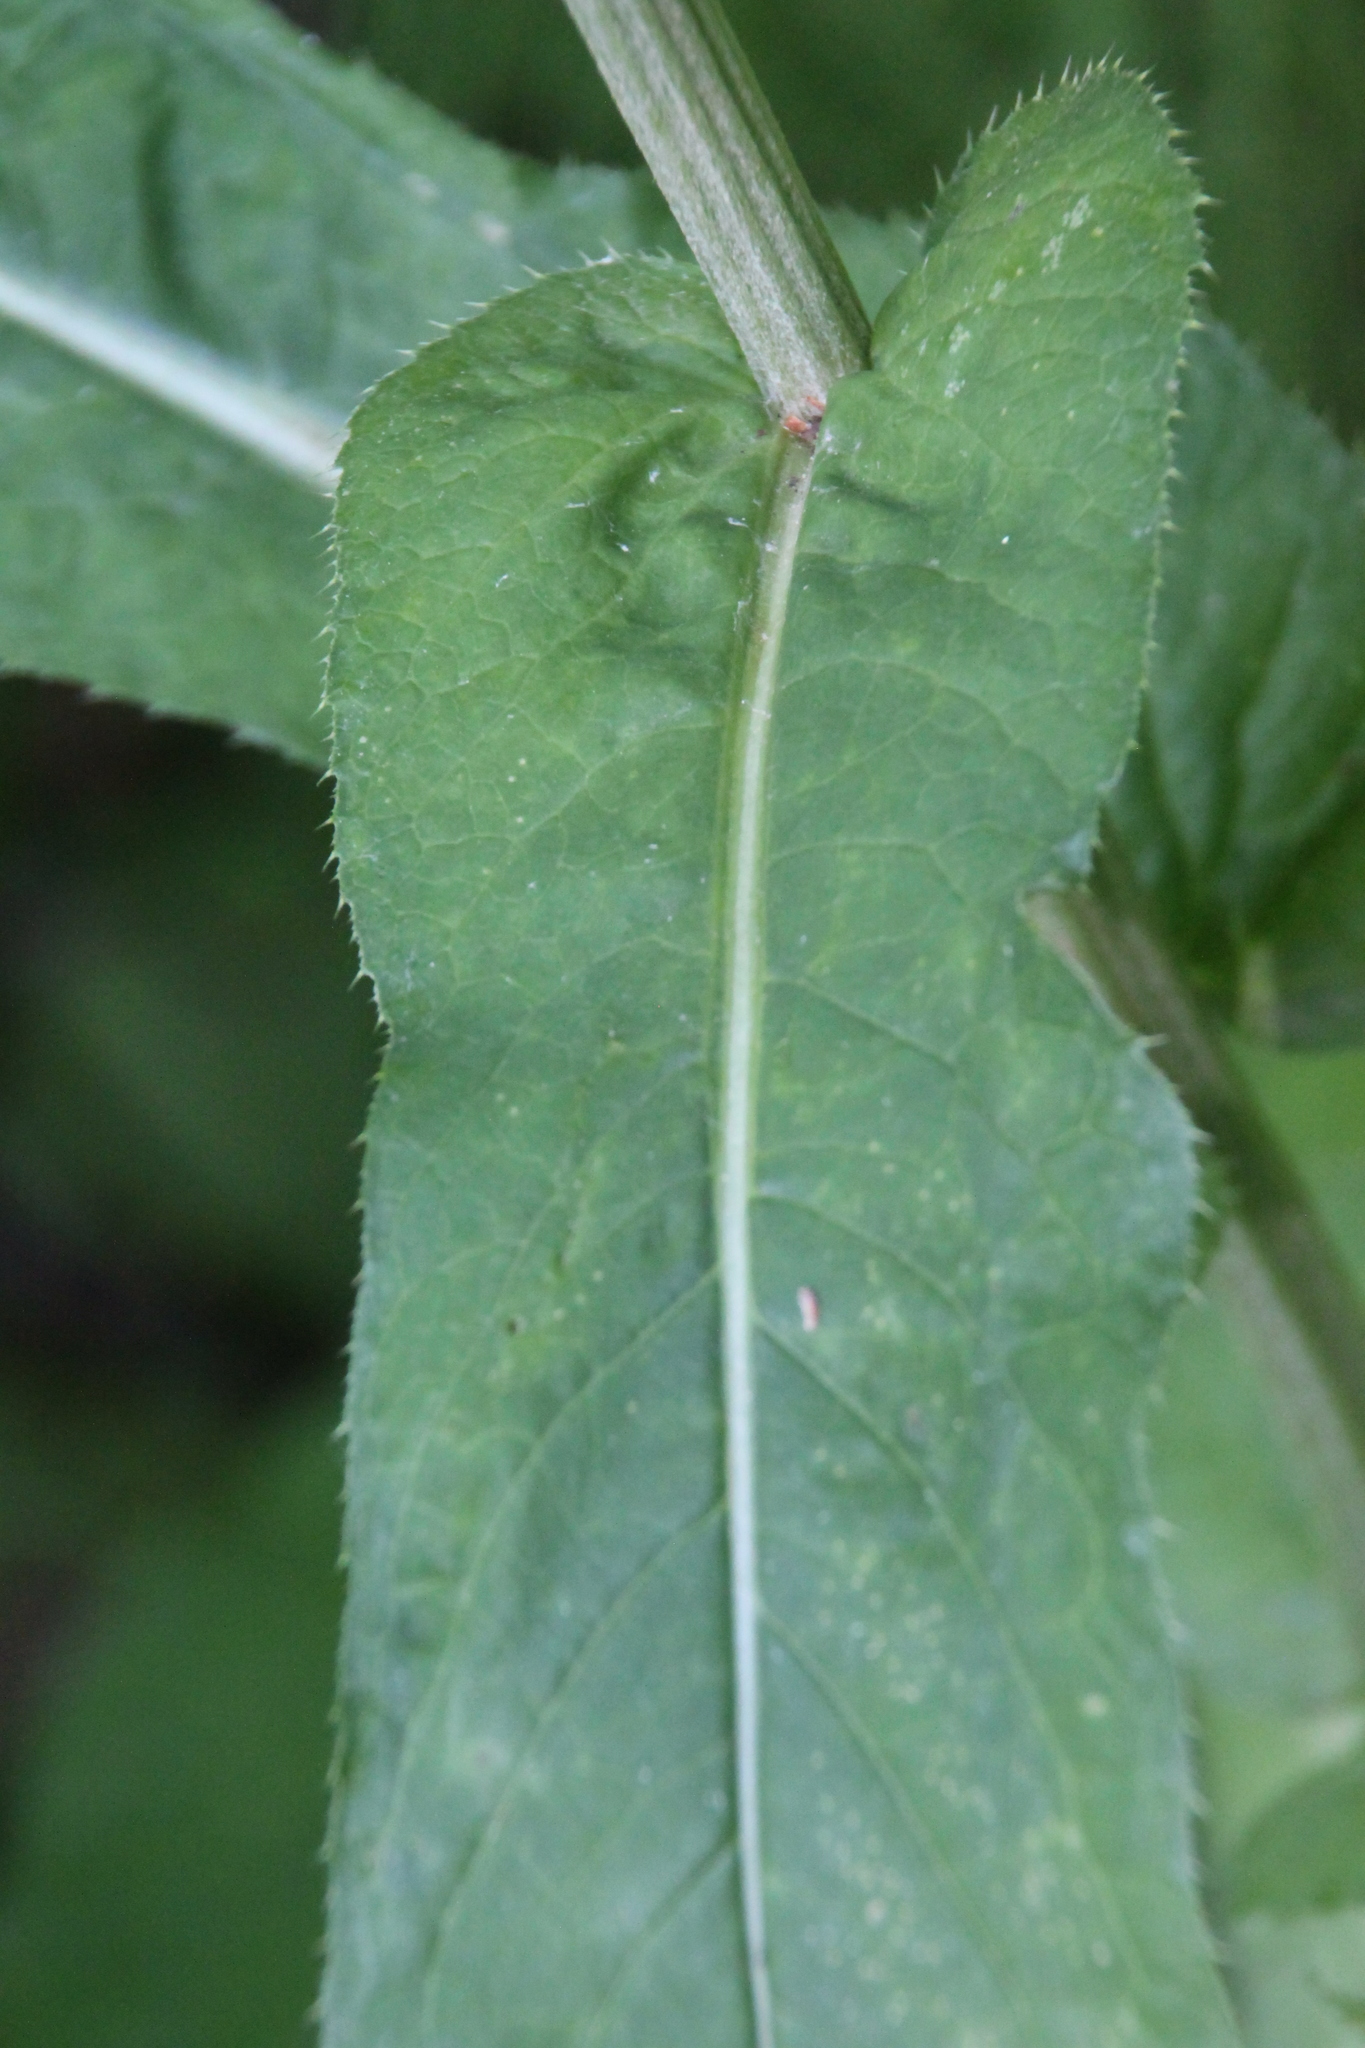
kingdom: Plantae
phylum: Tracheophyta
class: Magnoliopsida
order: Asterales
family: Asteraceae
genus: Cirsium
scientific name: Cirsium heterophyllum
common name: Melancholy thistle
